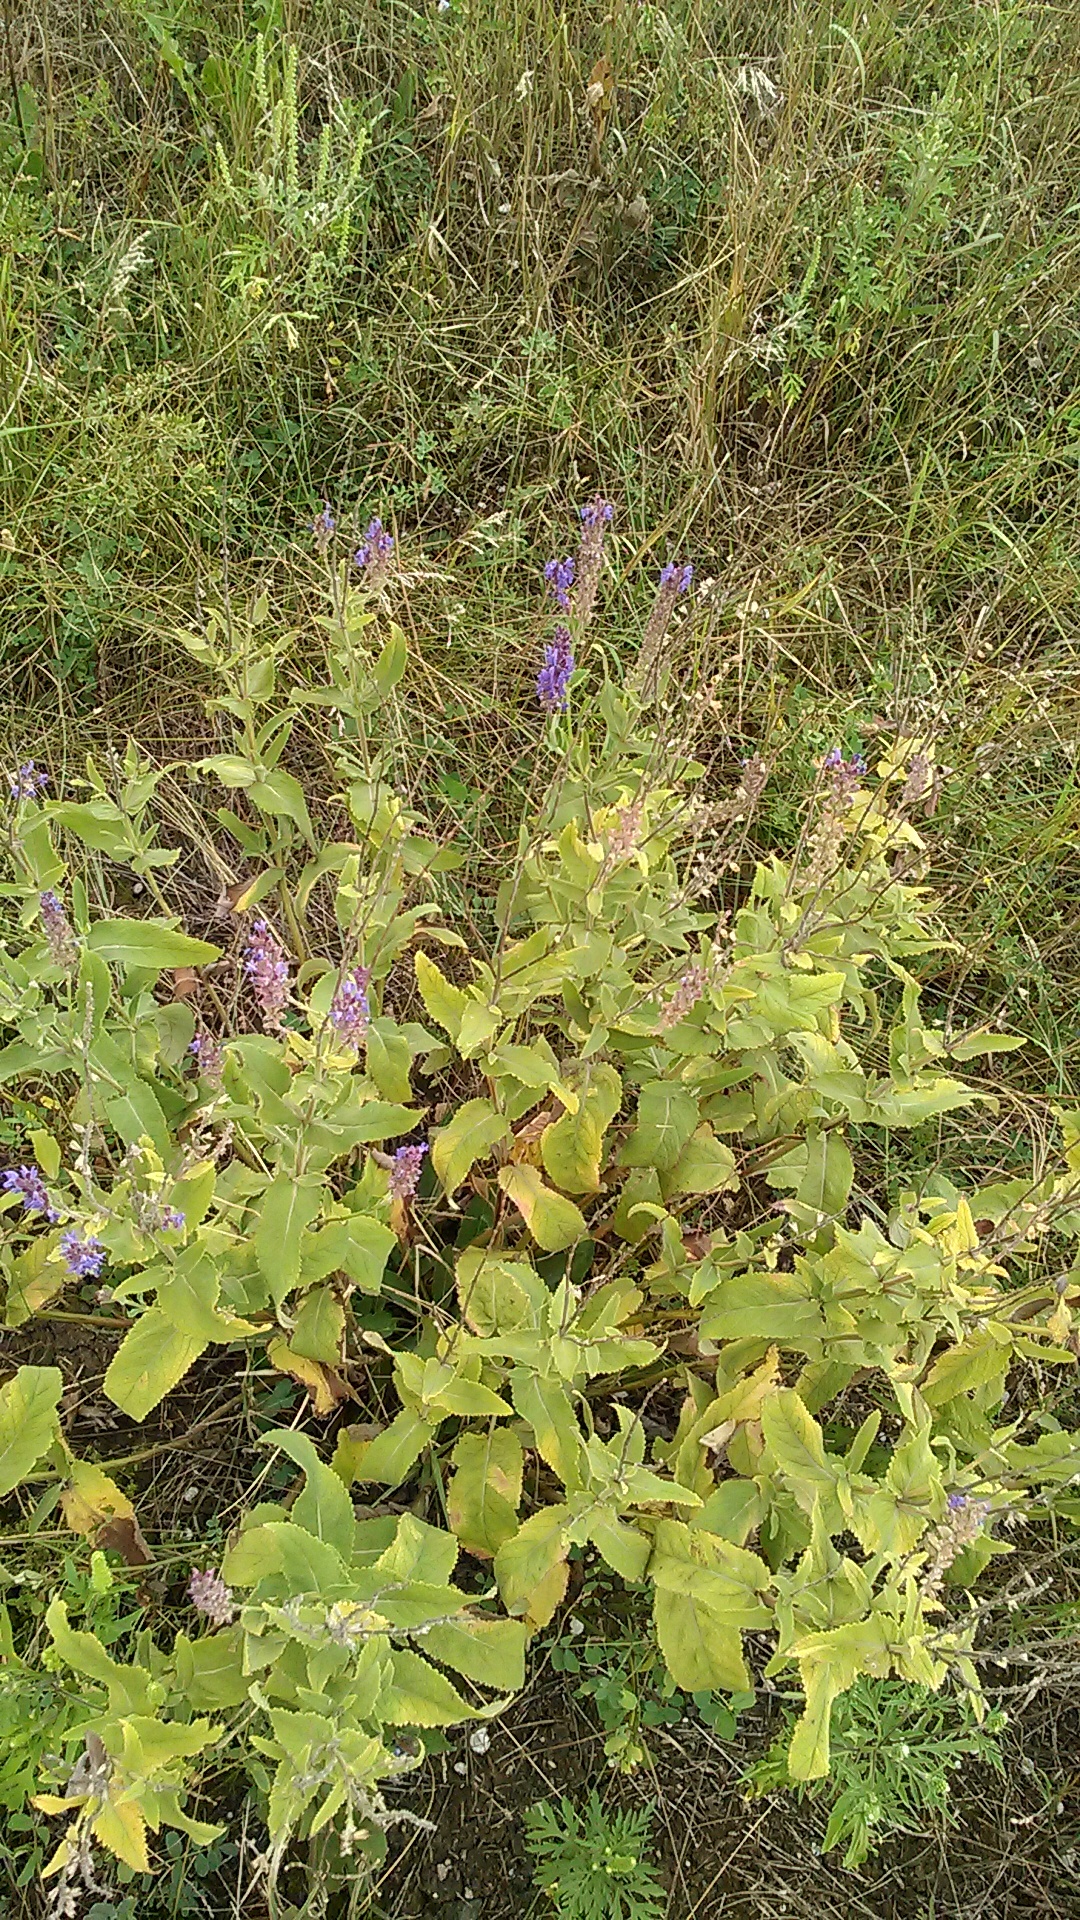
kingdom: Plantae
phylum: Tracheophyta
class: Magnoliopsida
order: Lamiales
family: Lamiaceae
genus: Salvia
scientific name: Salvia nemorosa
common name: Balkan clary
